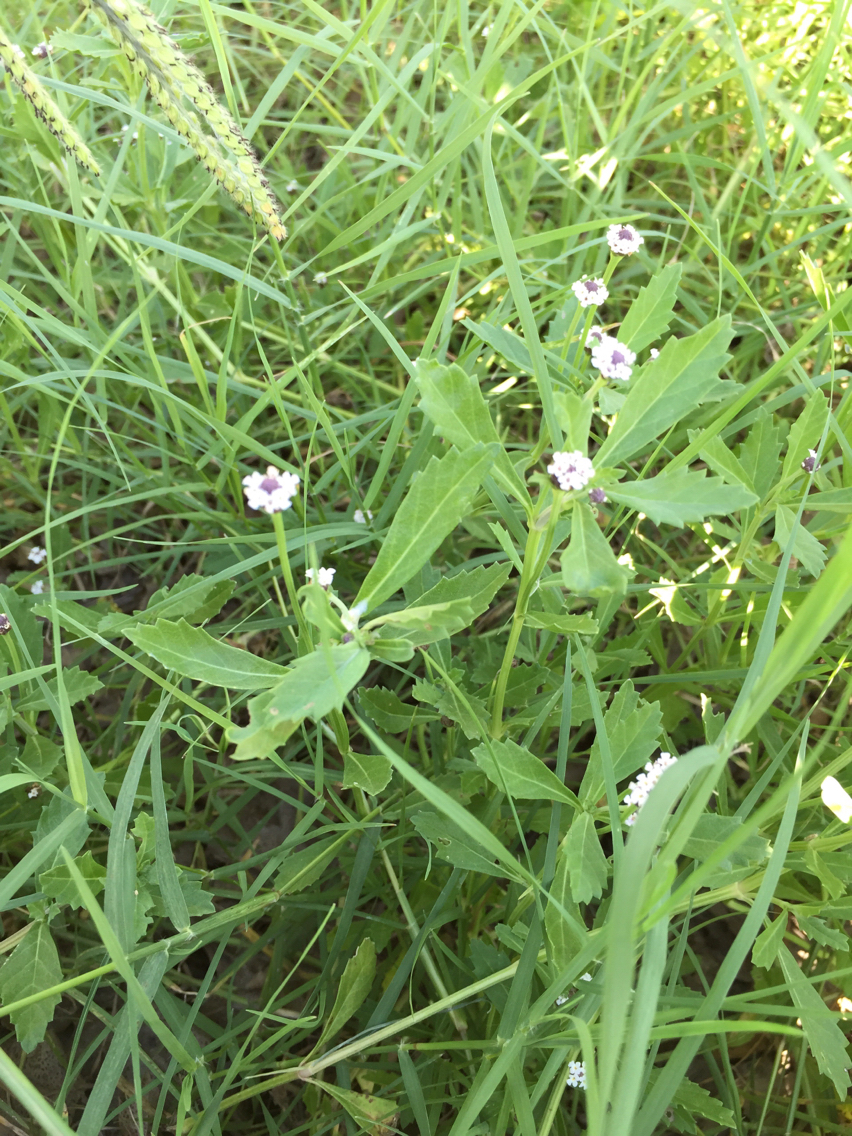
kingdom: Plantae
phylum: Tracheophyta
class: Magnoliopsida
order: Lamiales
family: Verbenaceae
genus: Phyla
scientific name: Phyla nodiflora
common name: Frogfruit
